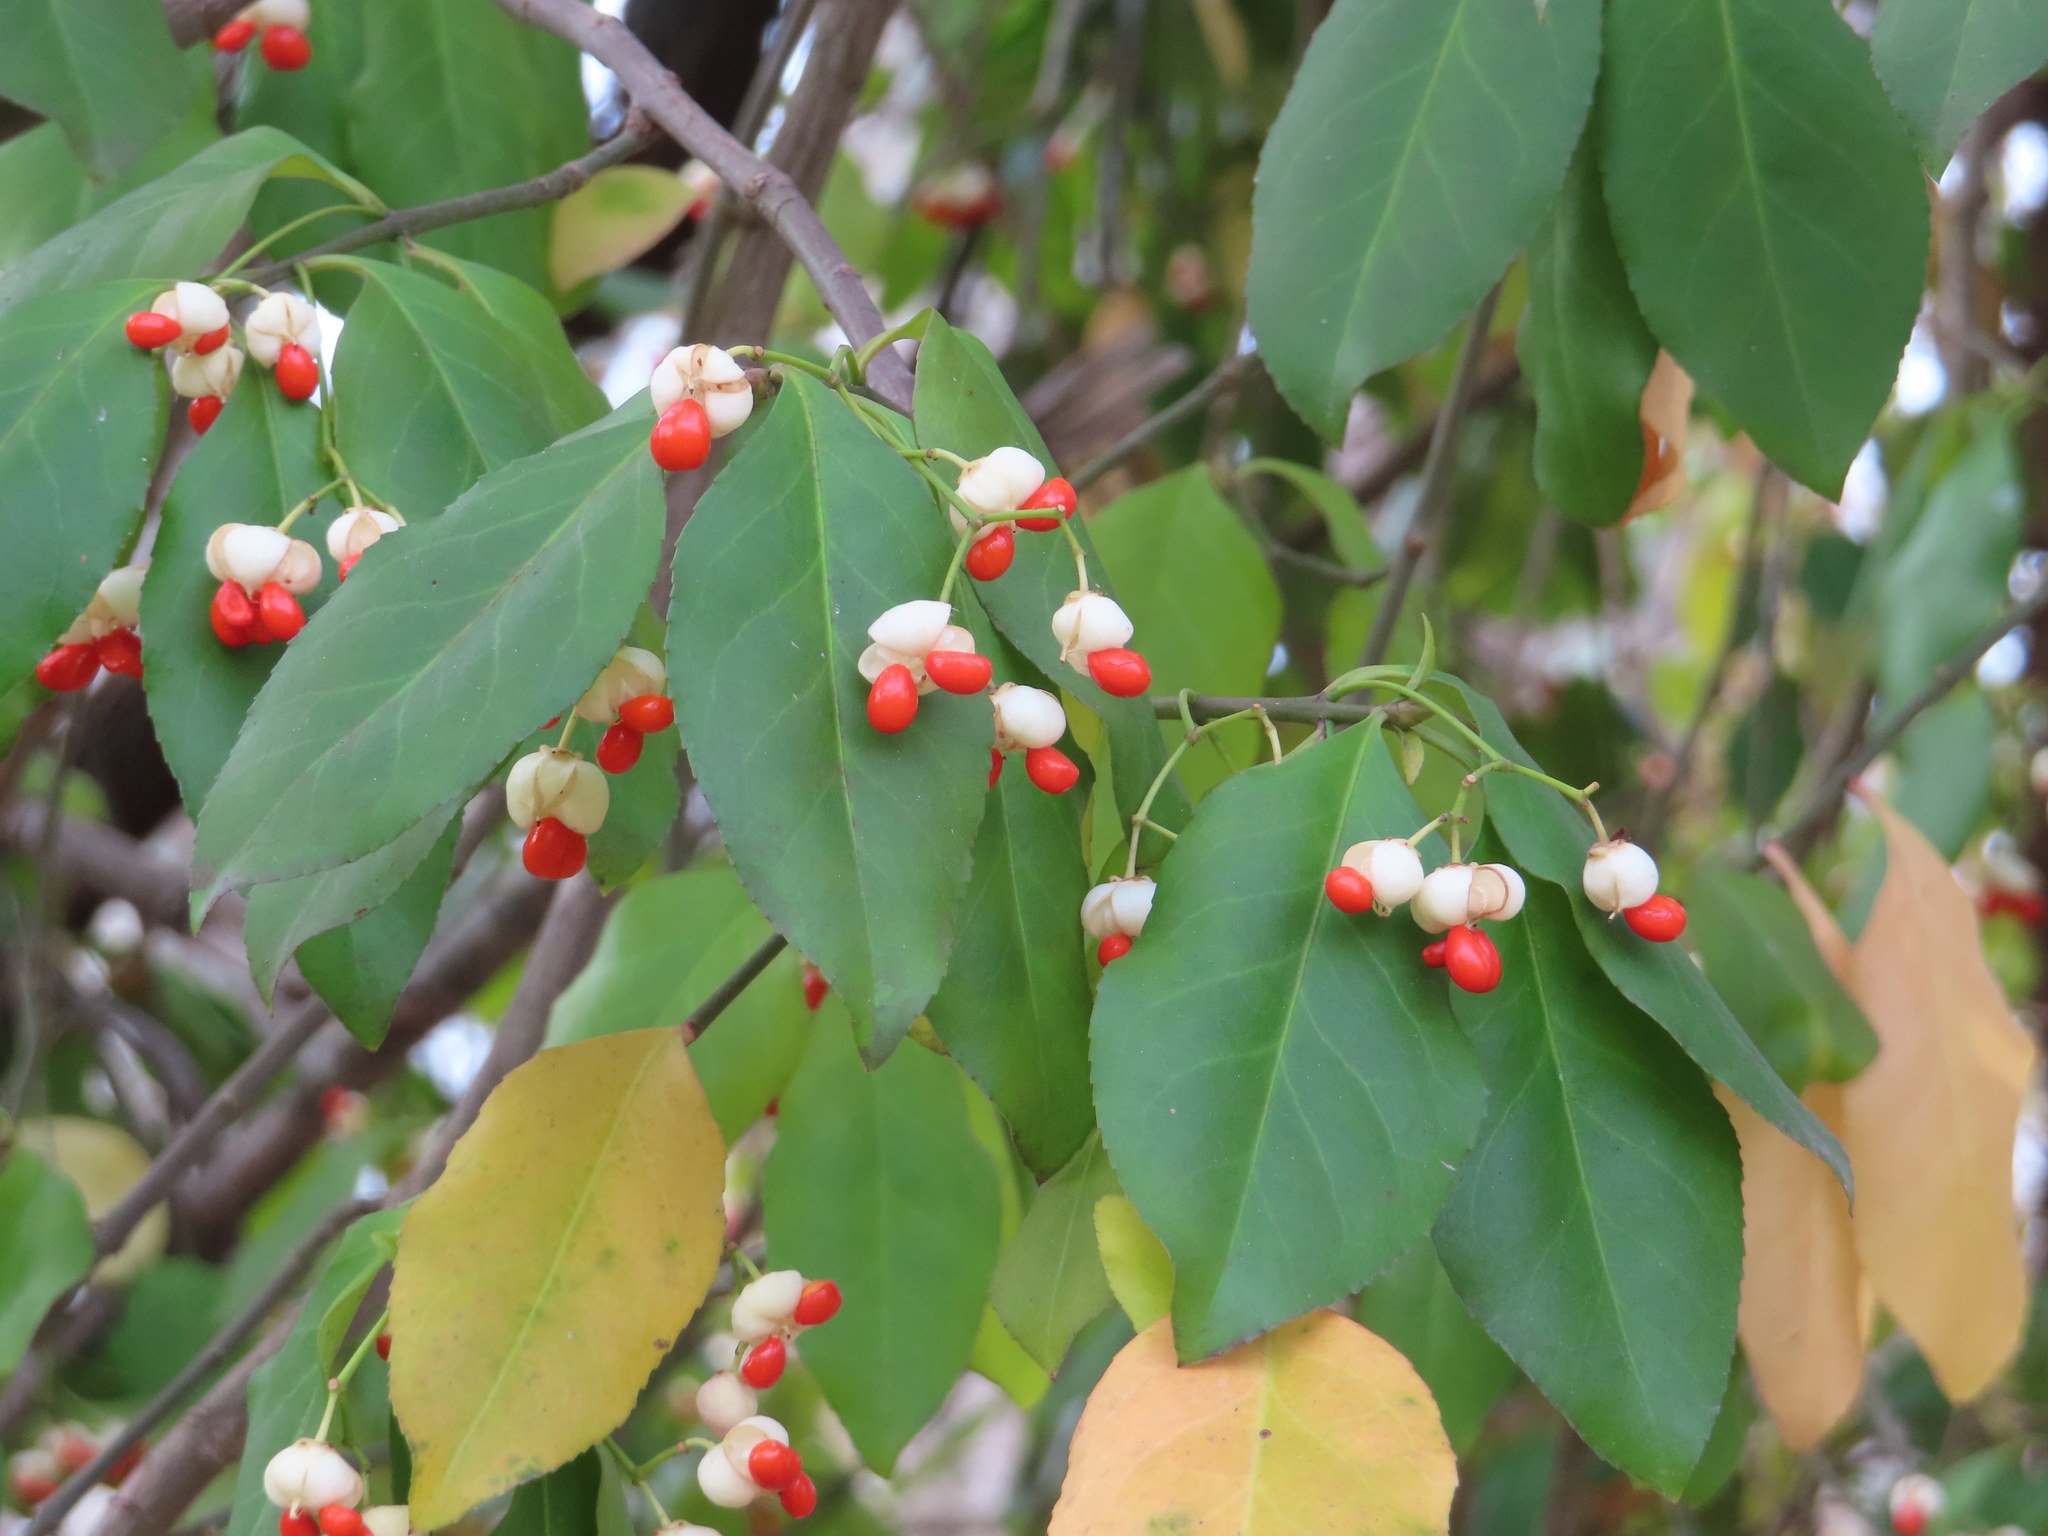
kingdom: Plantae
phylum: Tracheophyta
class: Magnoliopsida
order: Celastrales
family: Celastraceae
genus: Euonymus
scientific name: Euonymus fortunei
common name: Climbing euonymus
